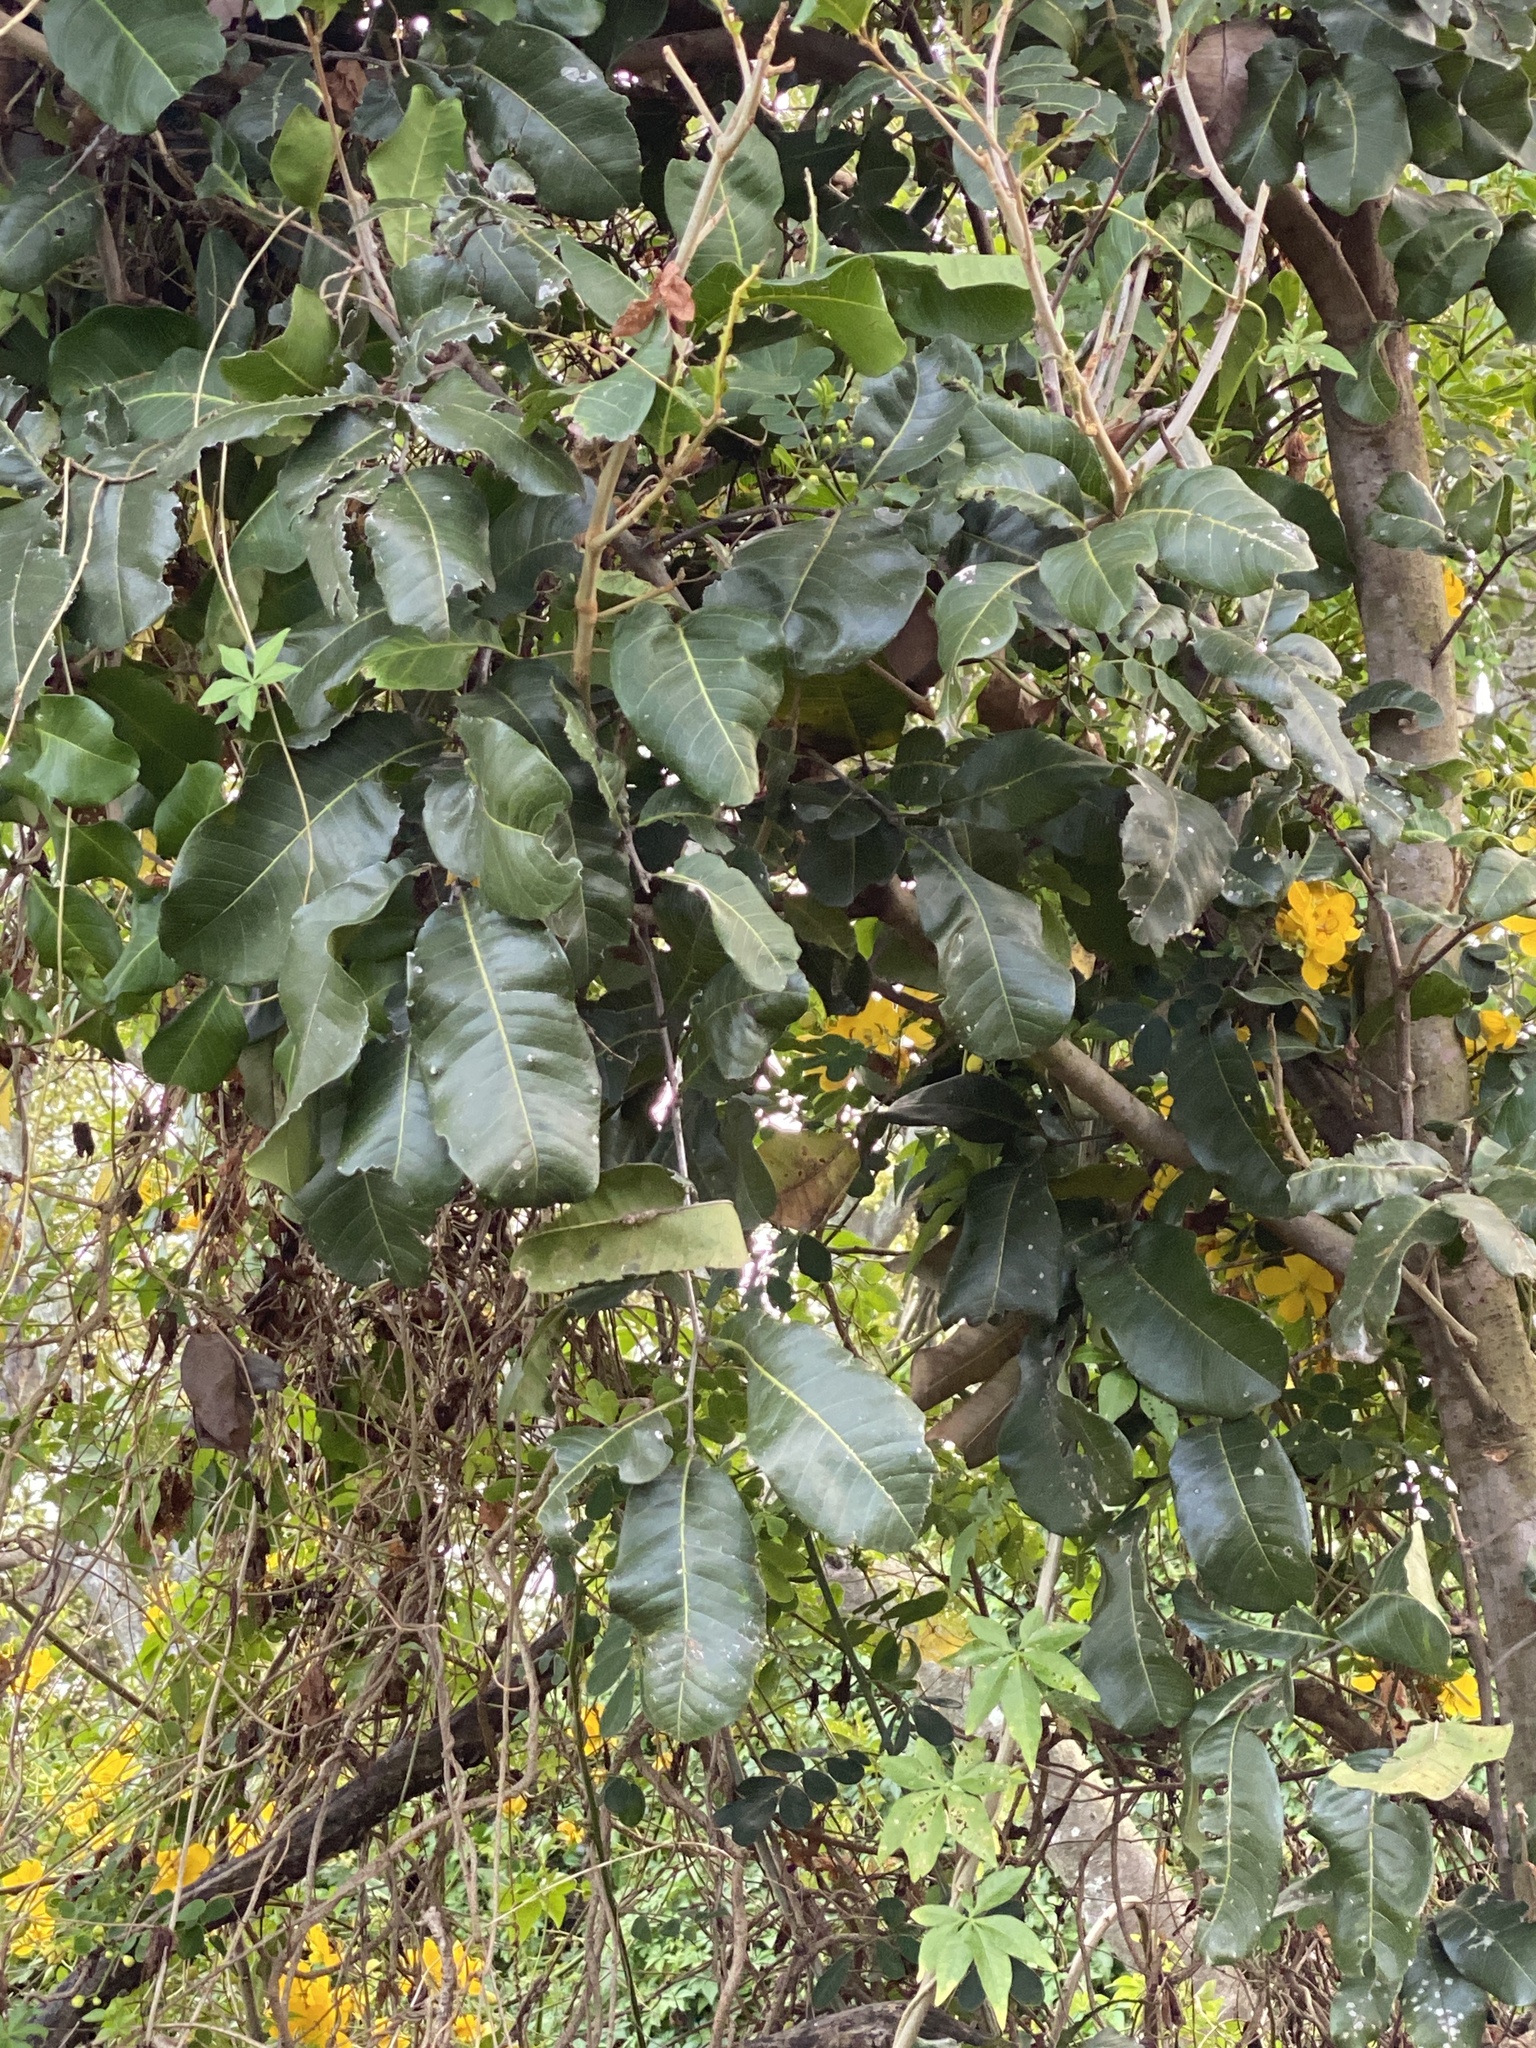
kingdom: Plantae
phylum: Tracheophyta
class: Magnoliopsida
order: Fabales
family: Fabaceae
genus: Pongamia
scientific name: Pongamia pinnata
